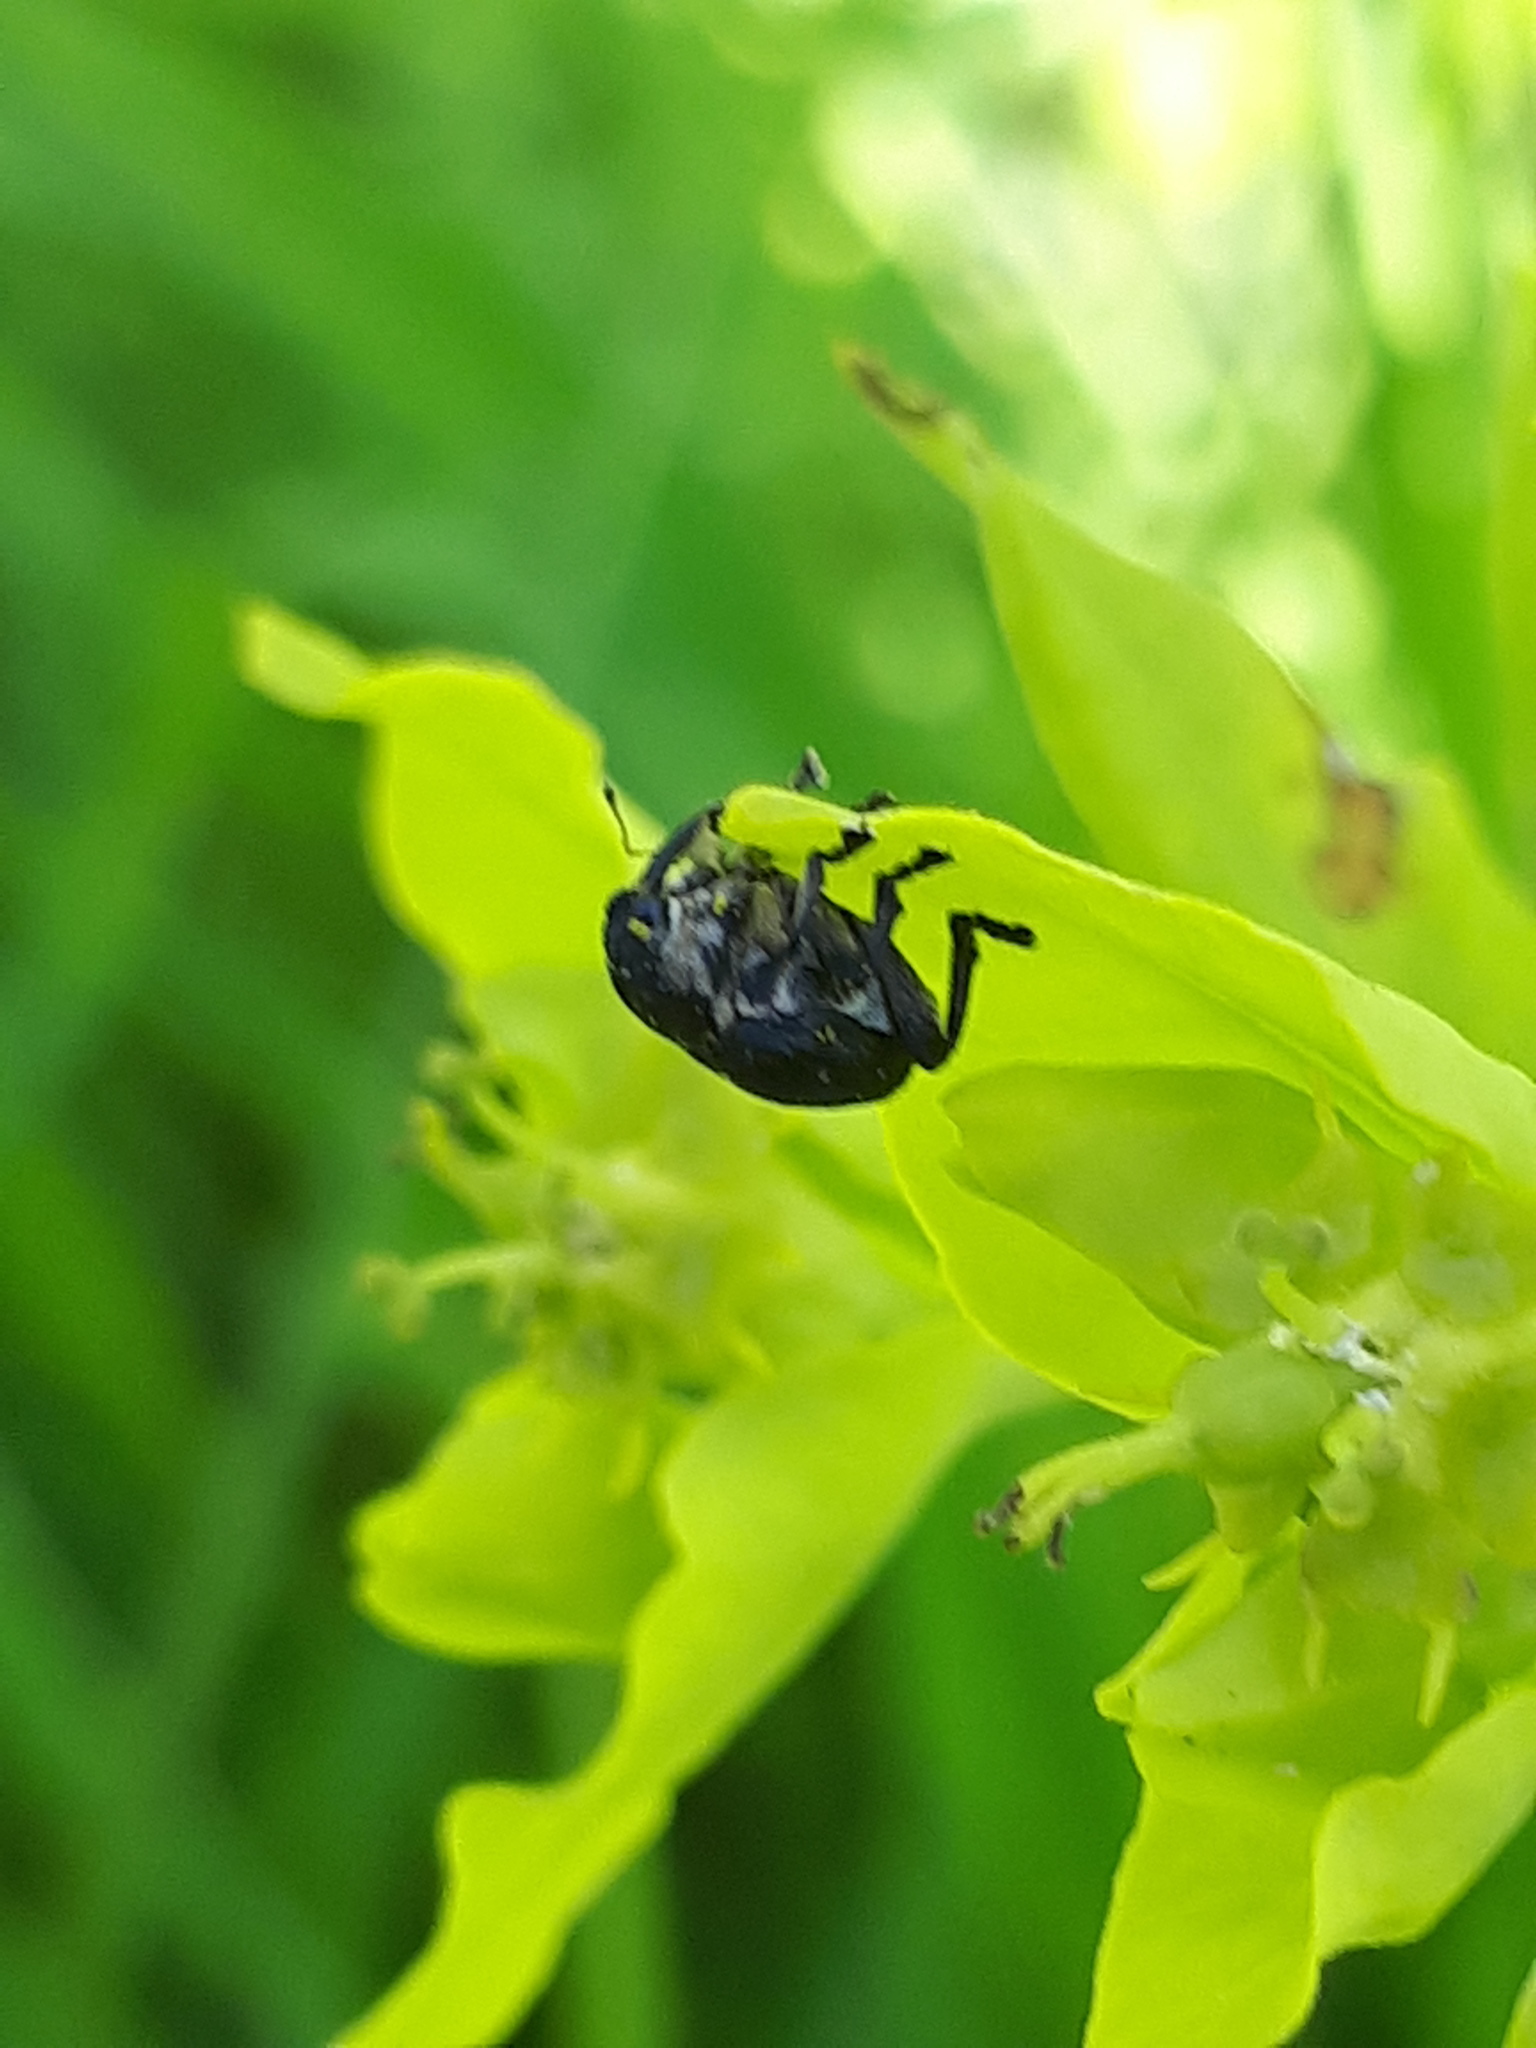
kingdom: Animalia
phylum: Arthropoda
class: Insecta
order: Coleoptera
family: Curculionidae
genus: Mononychus
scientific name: Mononychus punctumalbum
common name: Iris weevil
